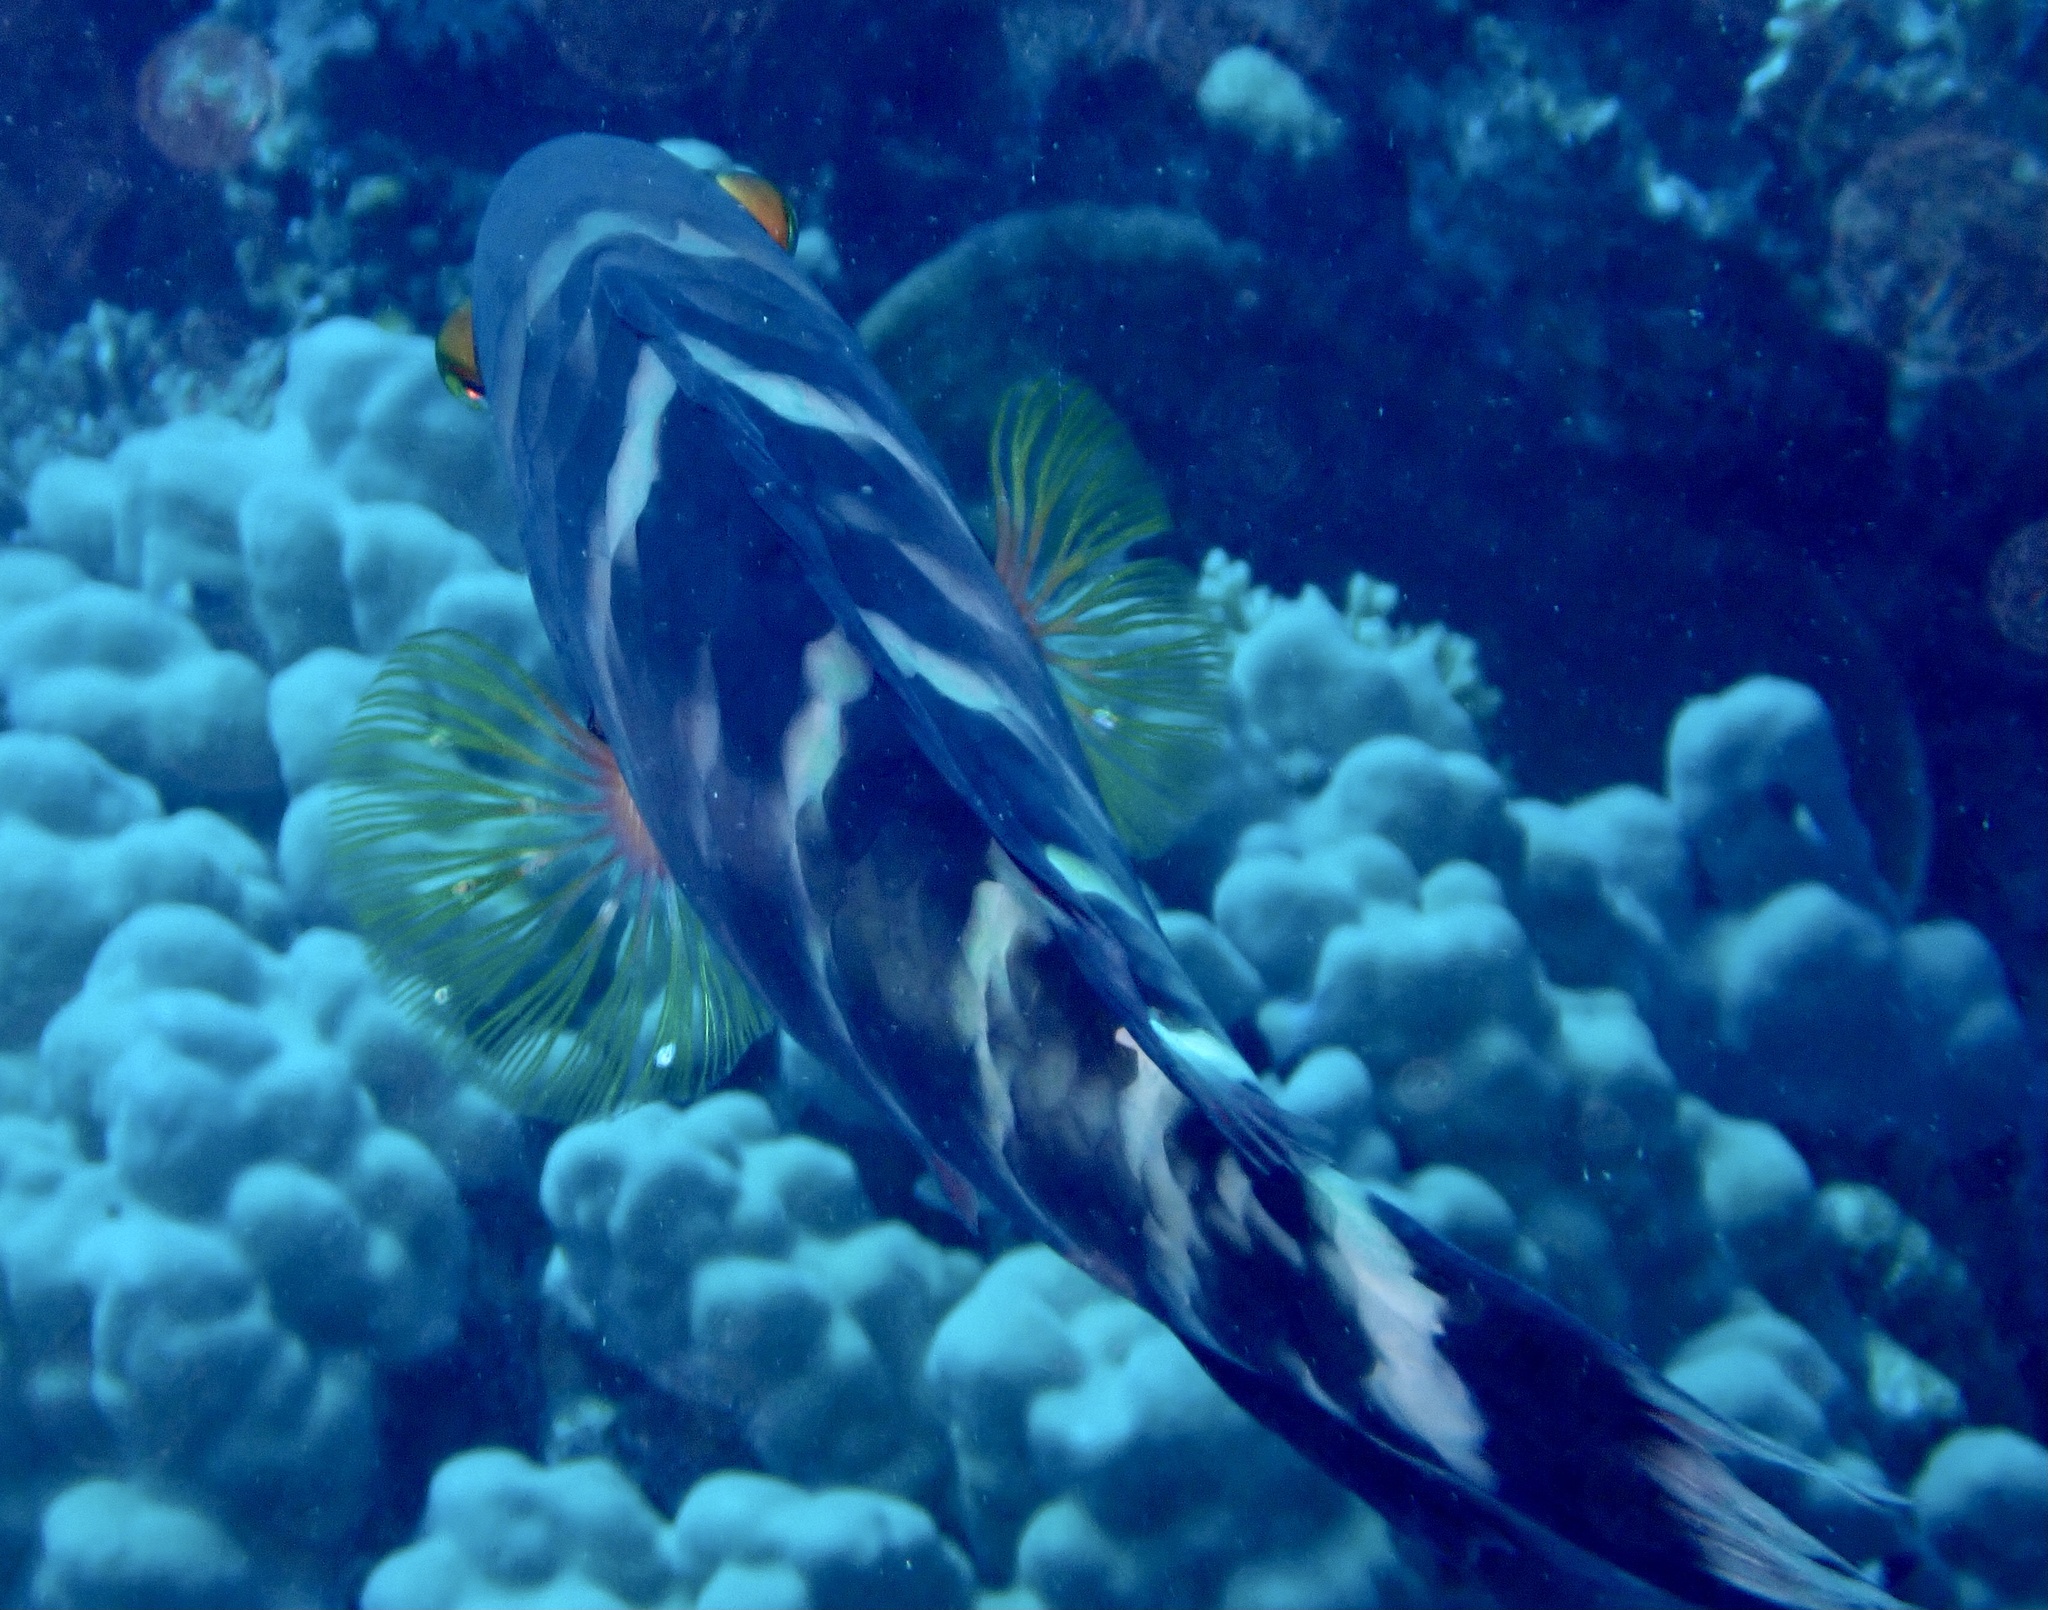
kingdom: Animalia
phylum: Chordata
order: Perciformes
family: Labridae
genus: Cheilinus
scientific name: Cheilinus fasciatus
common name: Red-breasted wrasse
